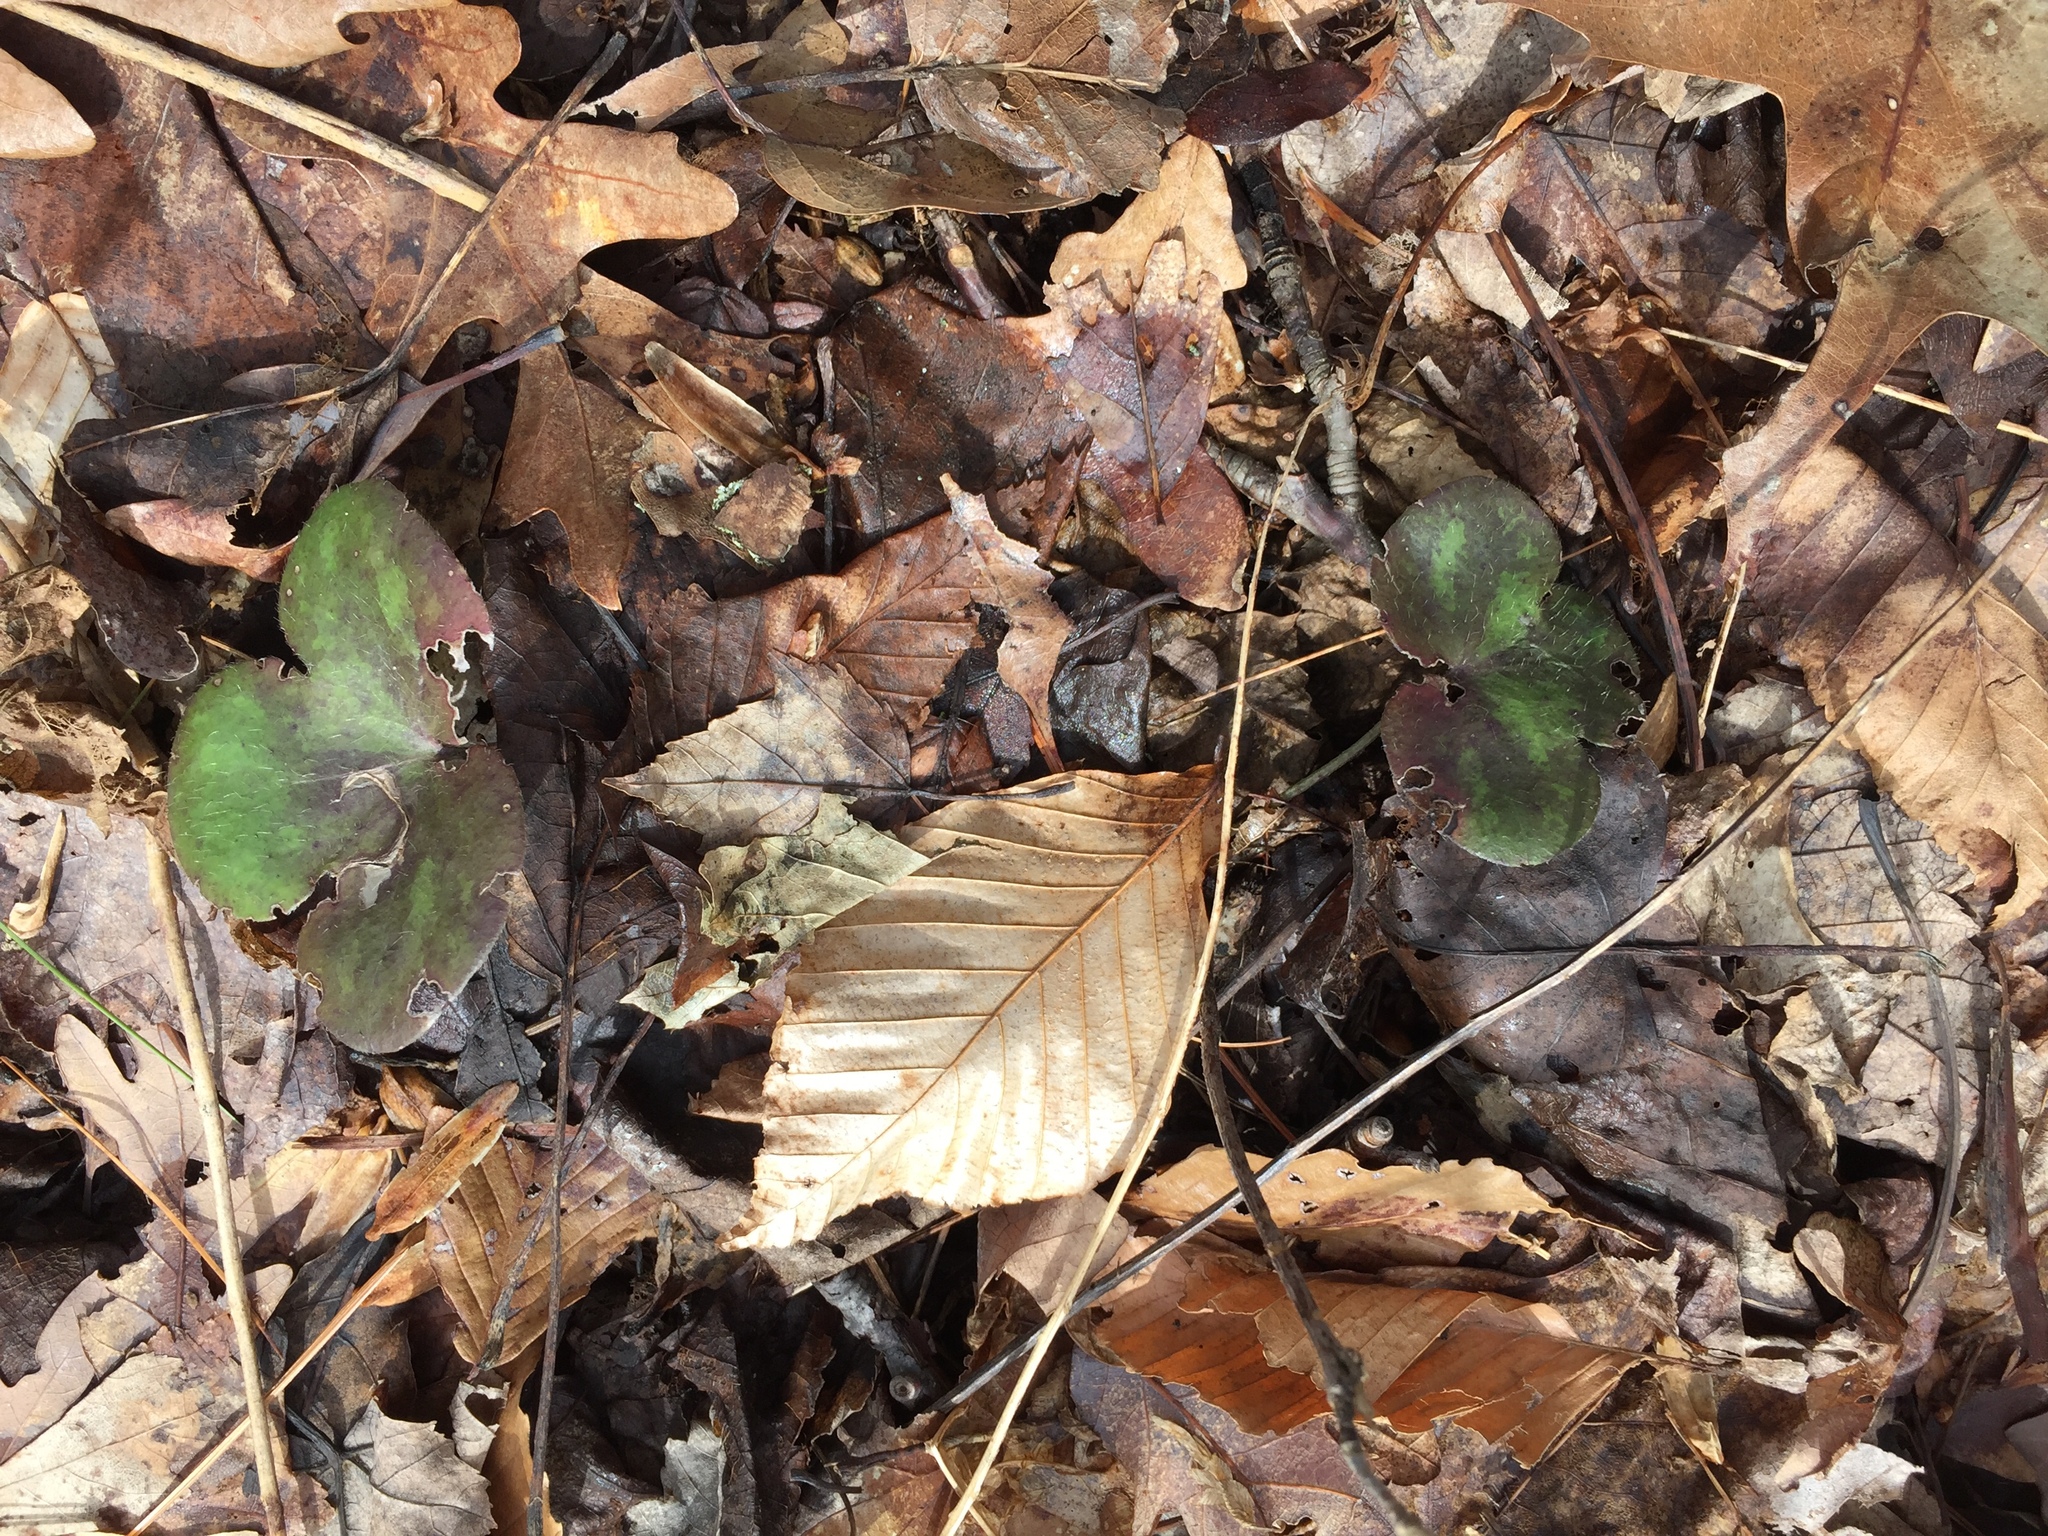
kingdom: Plantae
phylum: Tracheophyta
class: Magnoliopsida
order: Ranunculales
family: Ranunculaceae
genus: Hepatica
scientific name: Hepatica americana
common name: American hepatica
